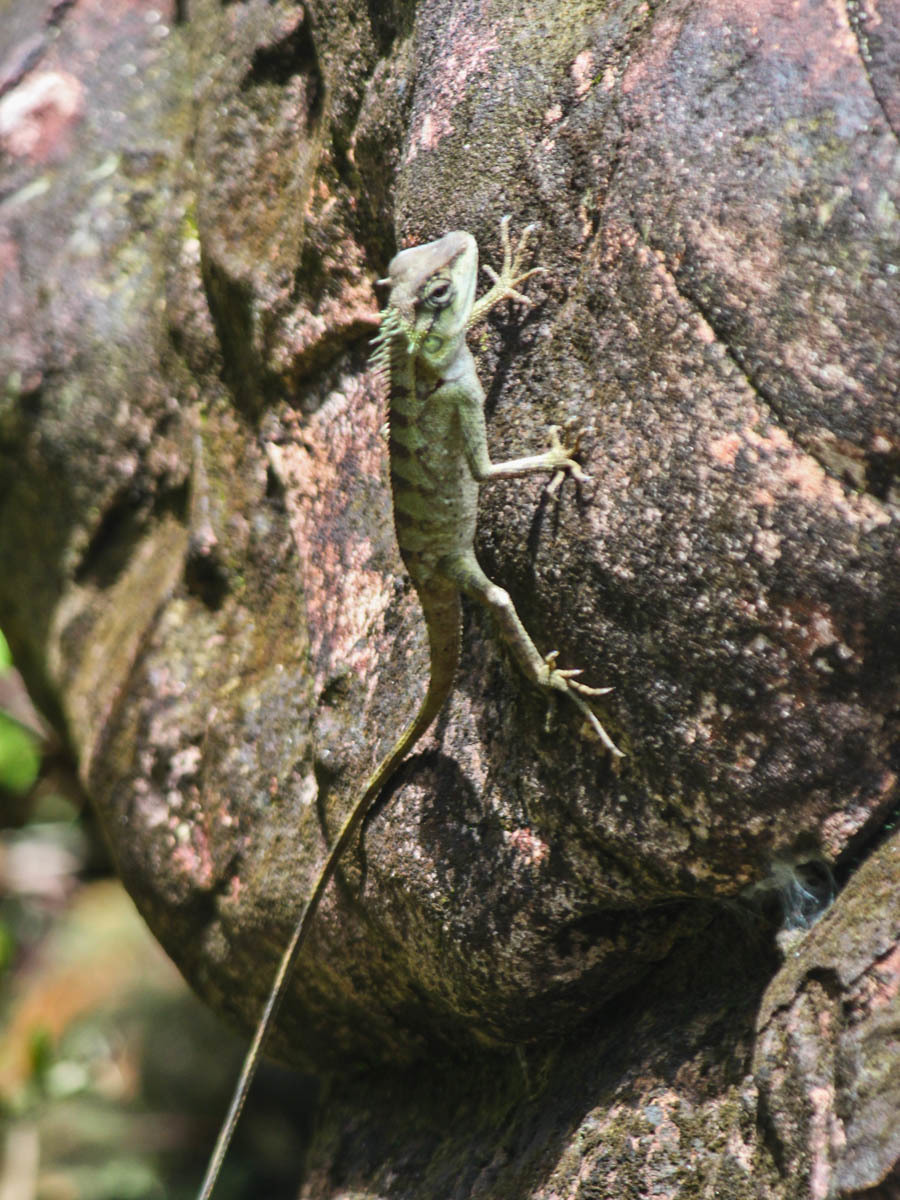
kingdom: Animalia
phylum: Chordata
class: Squamata
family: Agamidae
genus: Calotes
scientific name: Calotes emma
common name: Thailand bloodsucker
